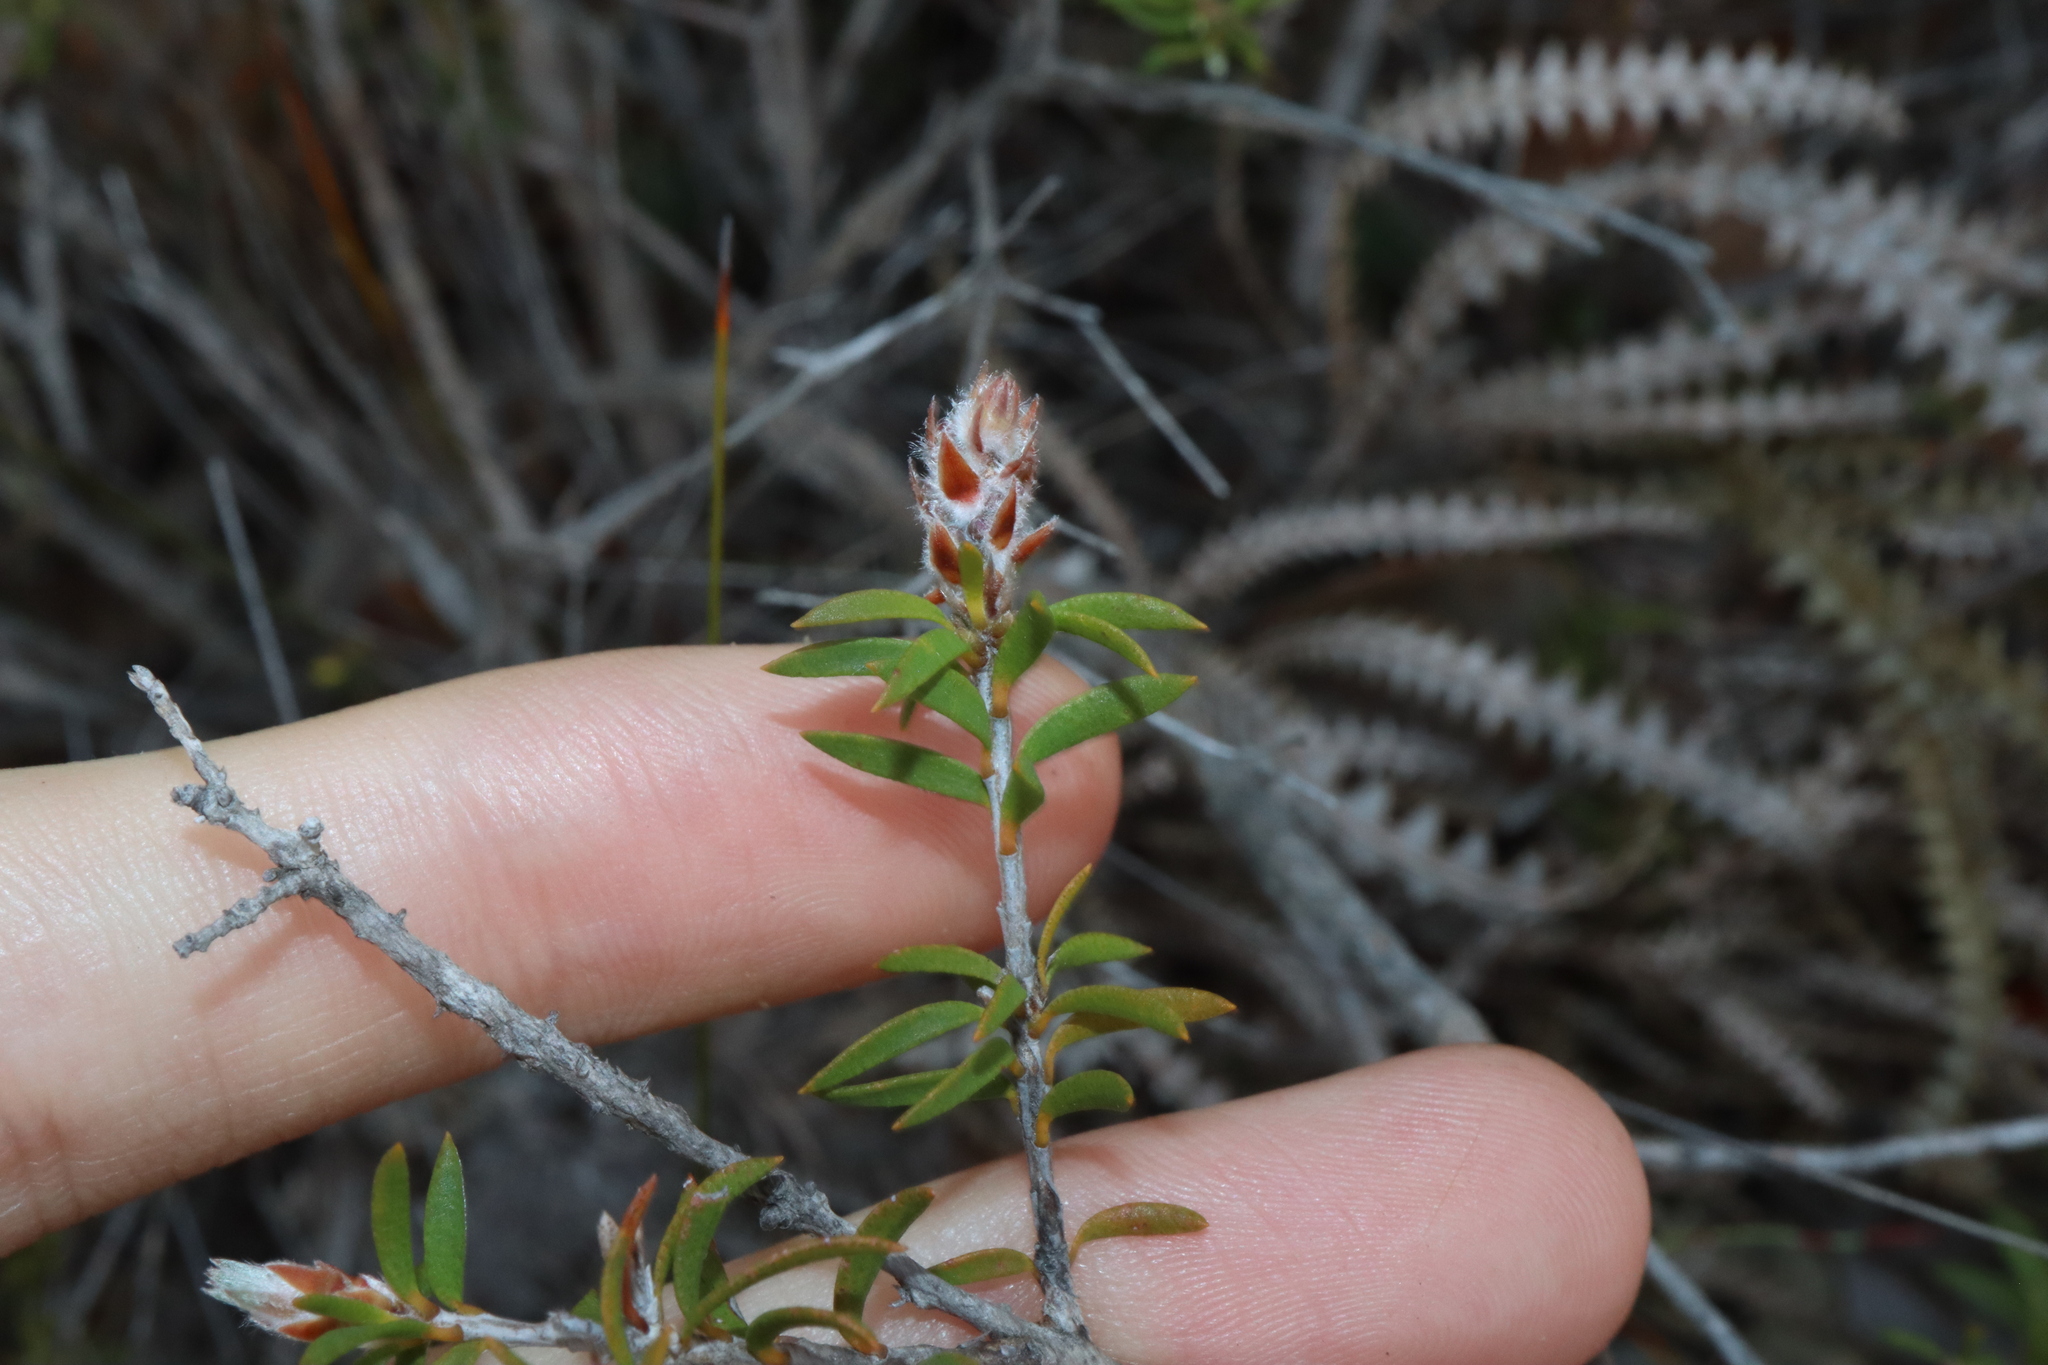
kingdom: Plantae
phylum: Tracheophyta
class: Magnoliopsida
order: Myrtales
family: Myrtaceae
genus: Melaleuca
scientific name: Melaleuca striata
